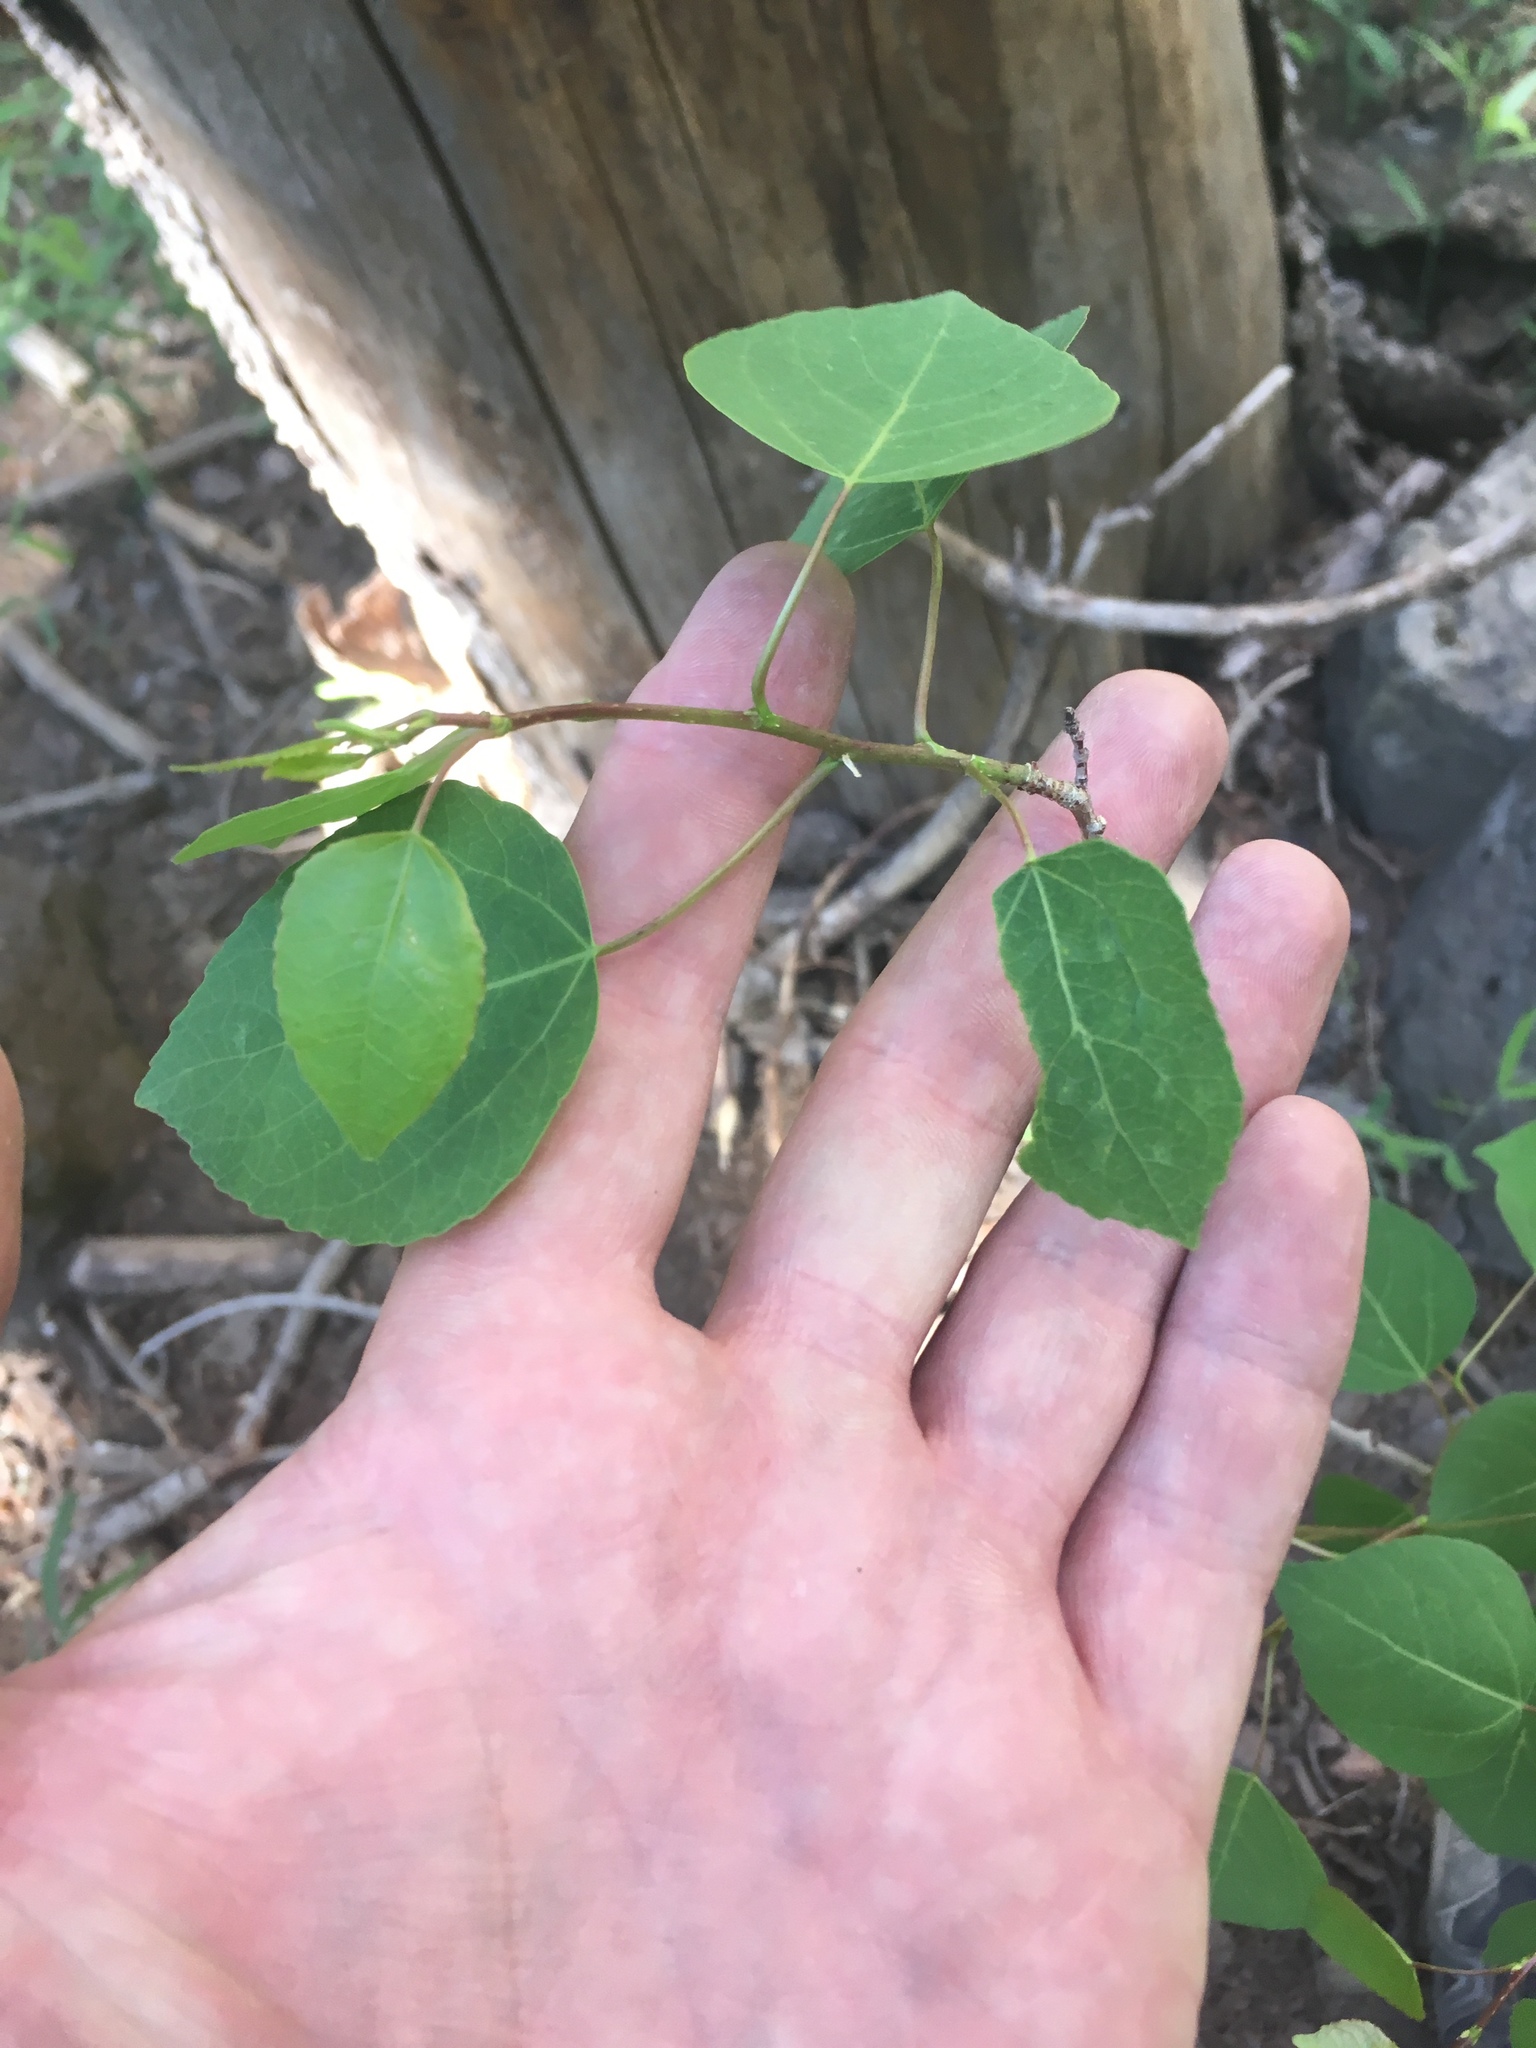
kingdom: Plantae
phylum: Tracheophyta
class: Magnoliopsida
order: Malpighiales
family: Salicaceae
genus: Populus
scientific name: Populus tremuloides
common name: Quaking aspen
